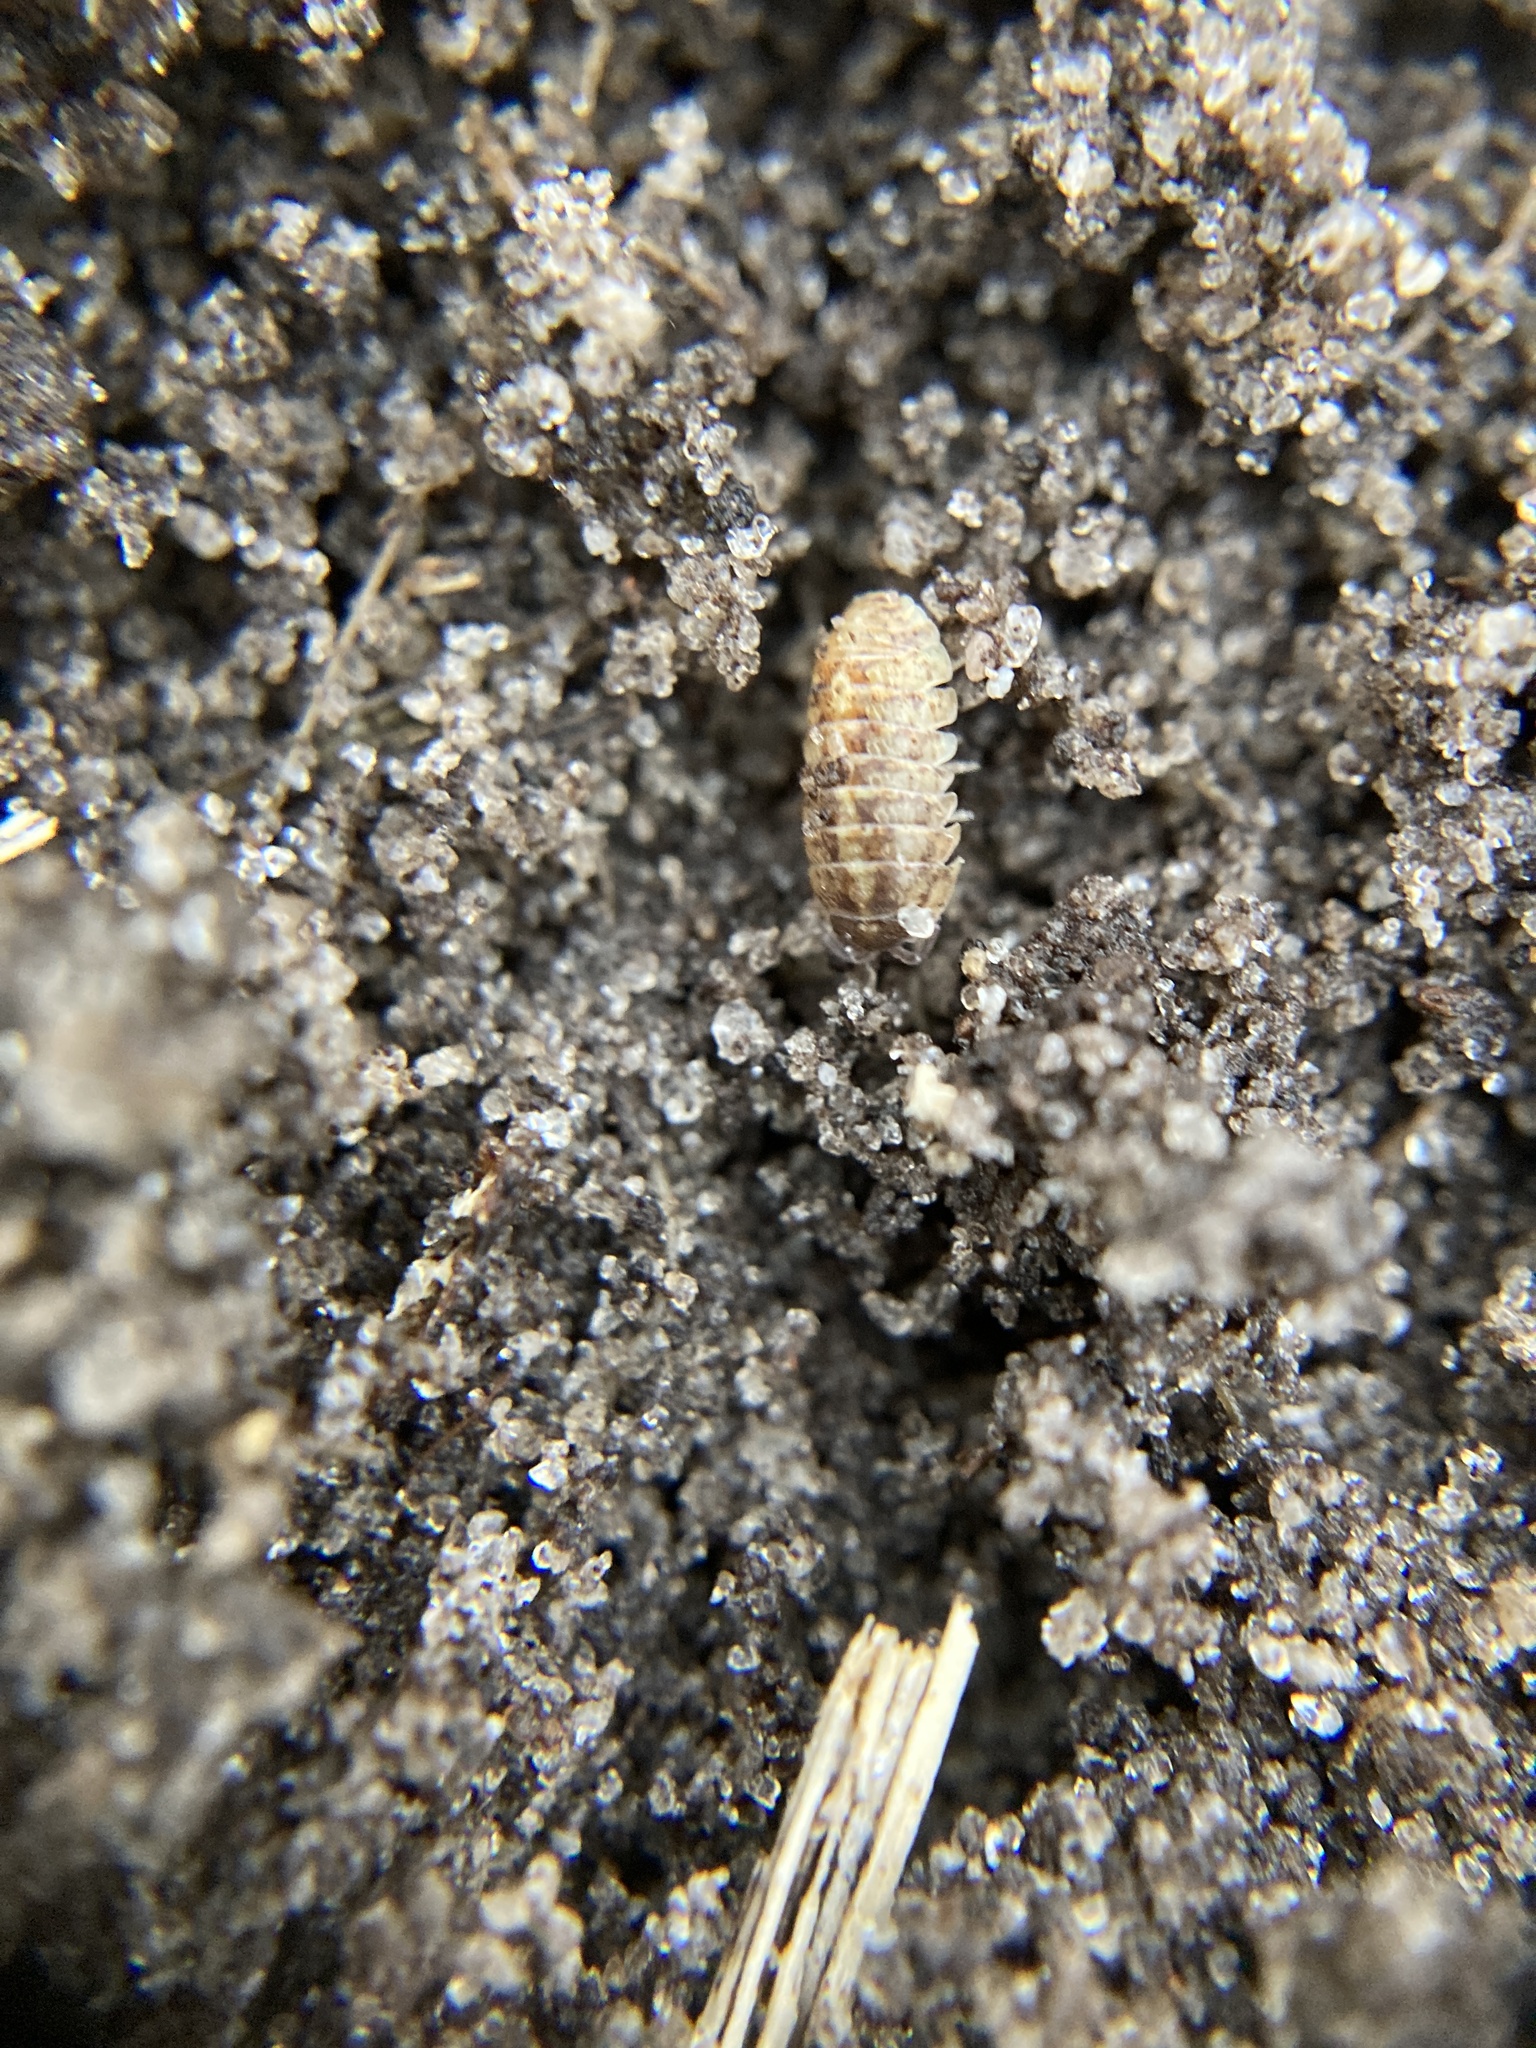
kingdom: Animalia
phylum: Arthropoda
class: Malacostraca
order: Isopoda
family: Armadillidiidae
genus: Armadillidium
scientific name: Armadillidium vulgare
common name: Common pill woodlouse
